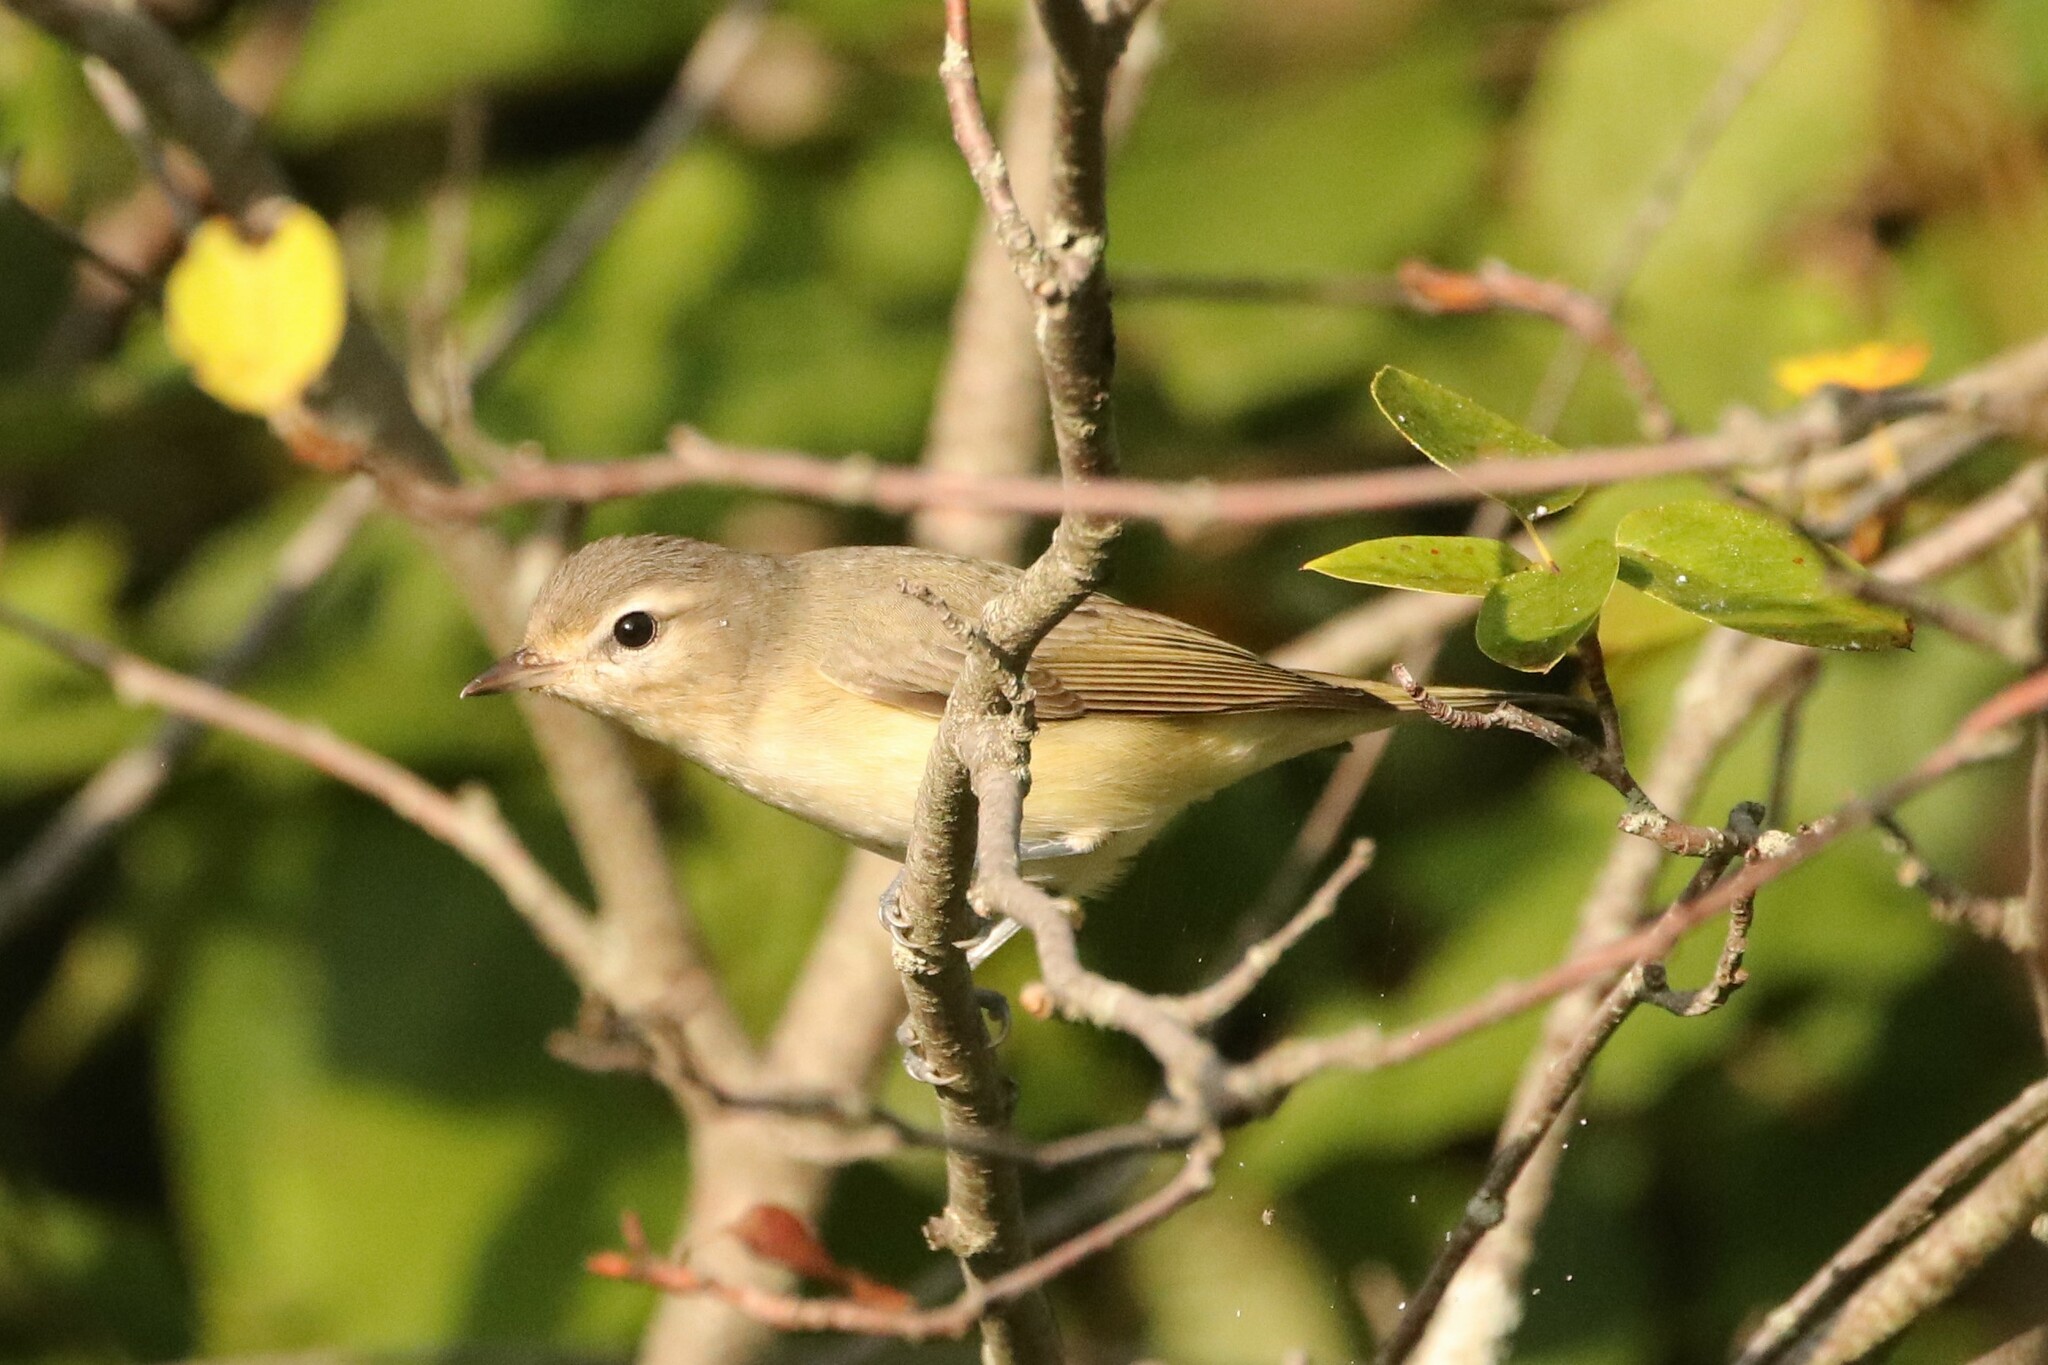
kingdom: Animalia
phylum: Chordata
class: Aves
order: Passeriformes
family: Vireonidae
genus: Vireo
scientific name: Vireo gilvus
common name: Warbling vireo
